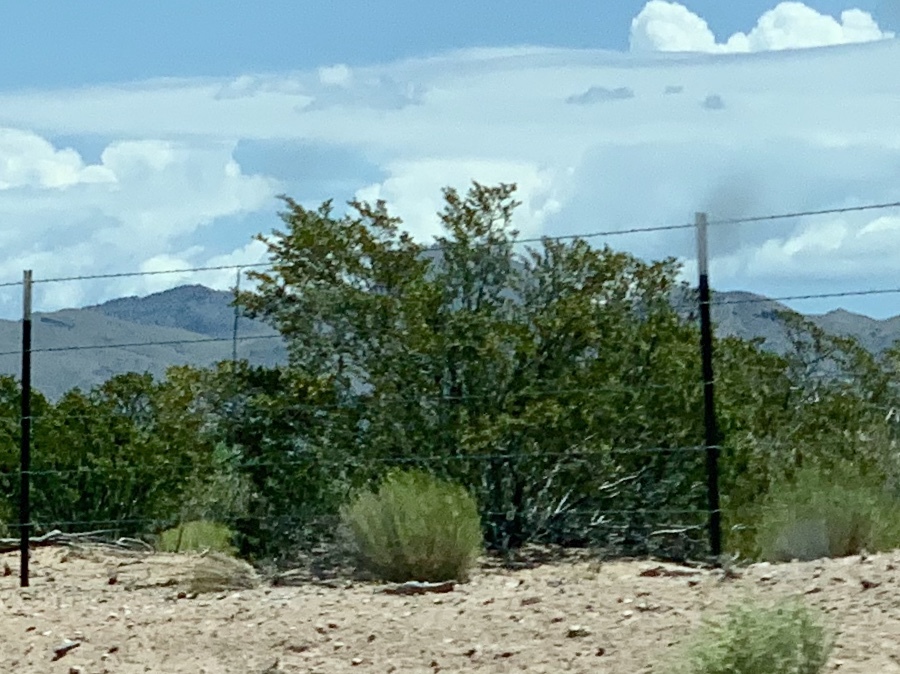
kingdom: Plantae
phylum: Tracheophyta
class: Magnoliopsida
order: Zygophyllales
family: Zygophyllaceae
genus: Larrea
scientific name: Larrea tridentata
